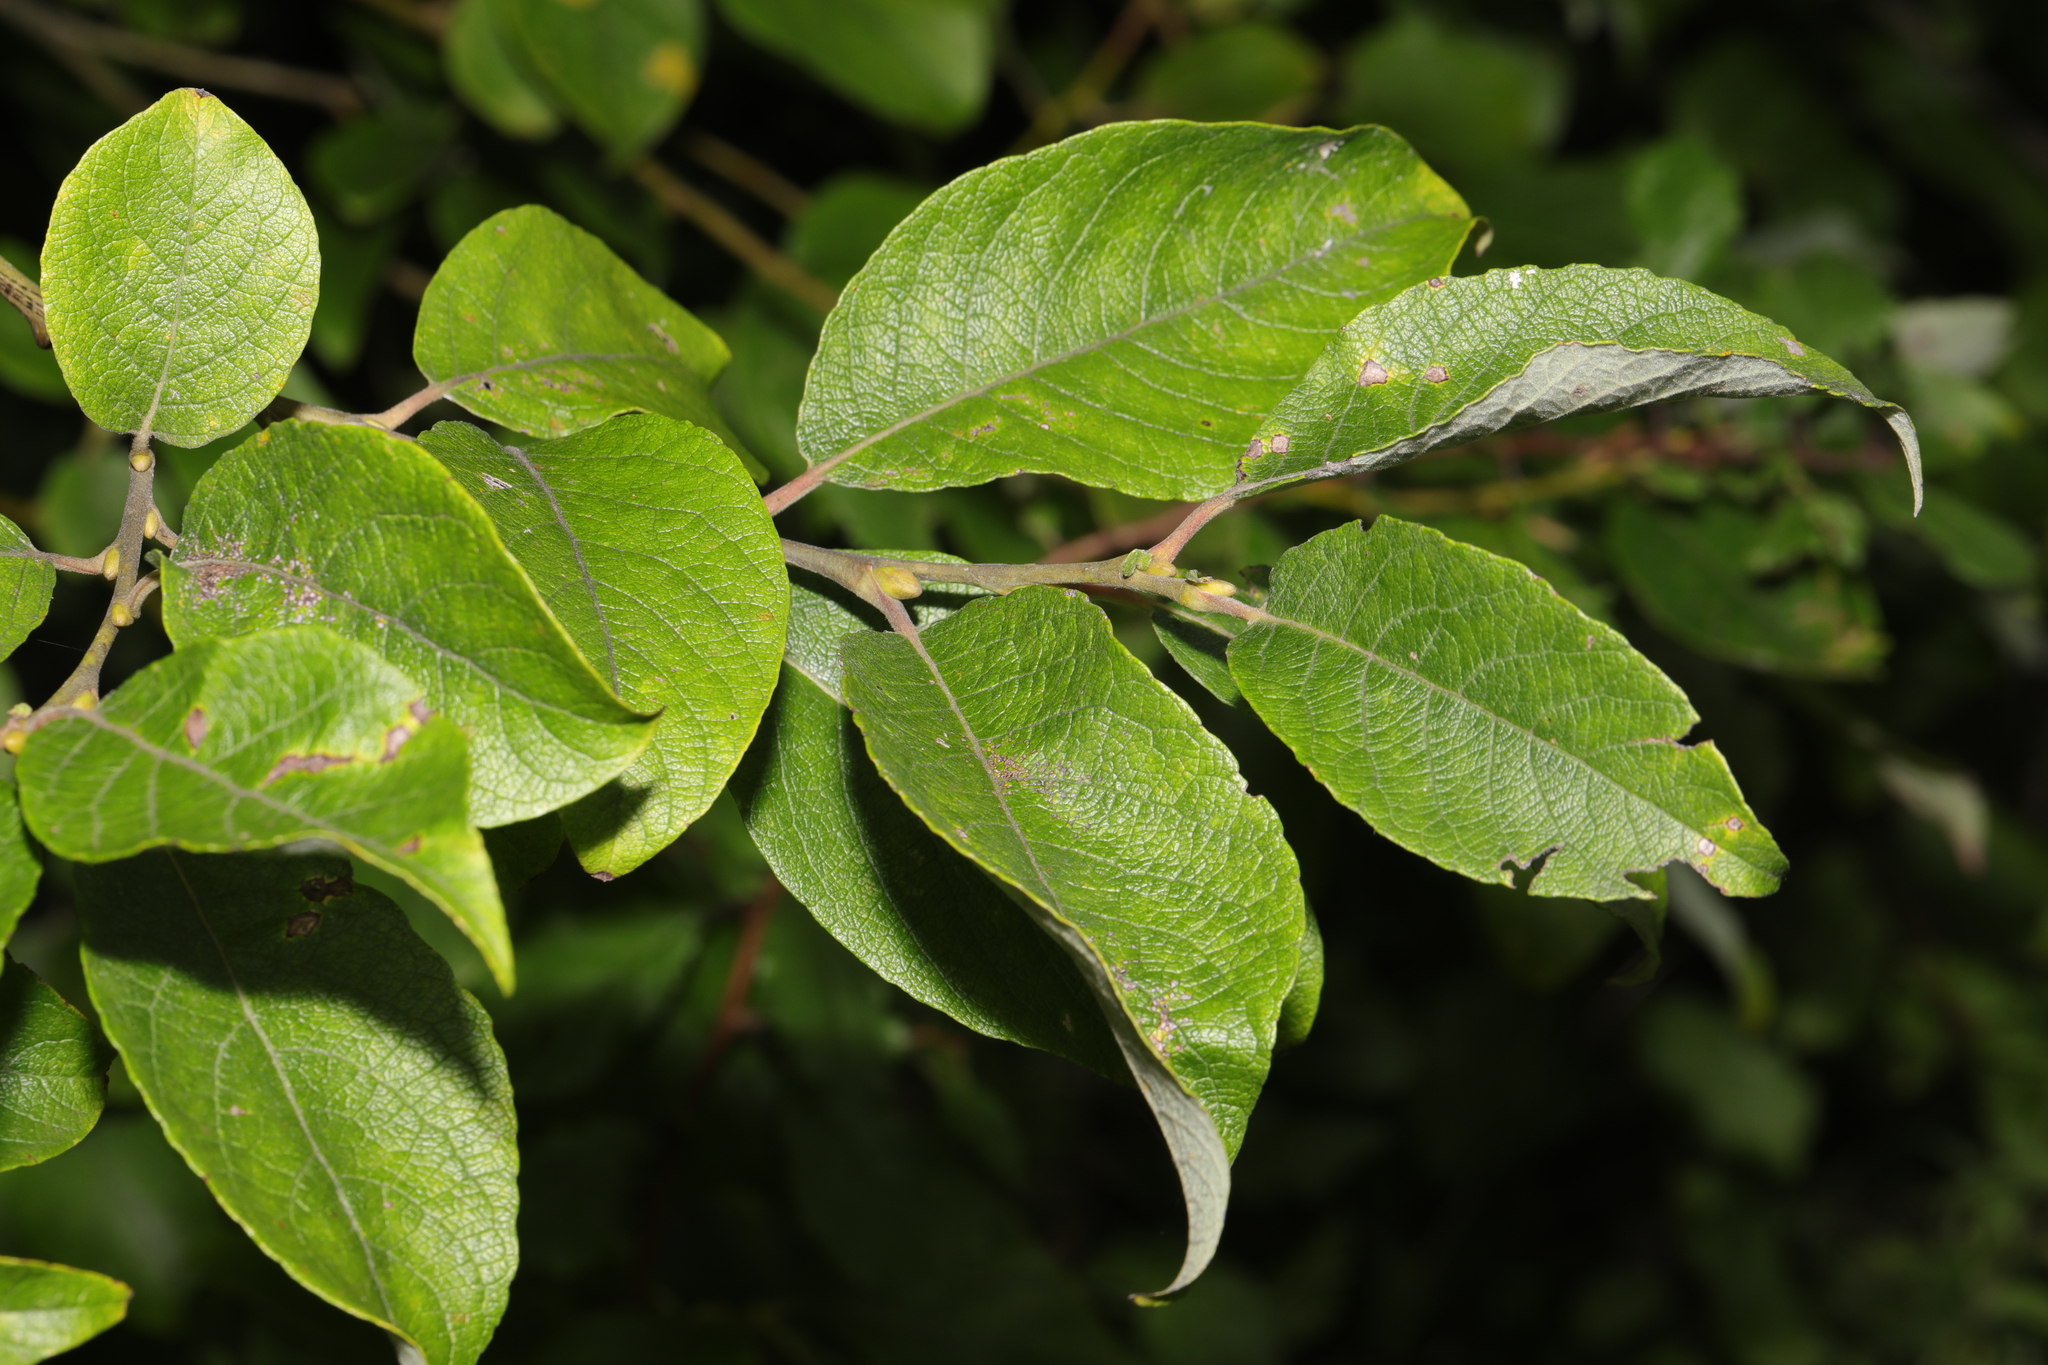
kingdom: Plantae
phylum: Tracheophyta
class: Magnoliopsida
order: Malpighiales
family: Salicaceae
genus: Salix
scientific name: Salix caprea
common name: Goat willow
